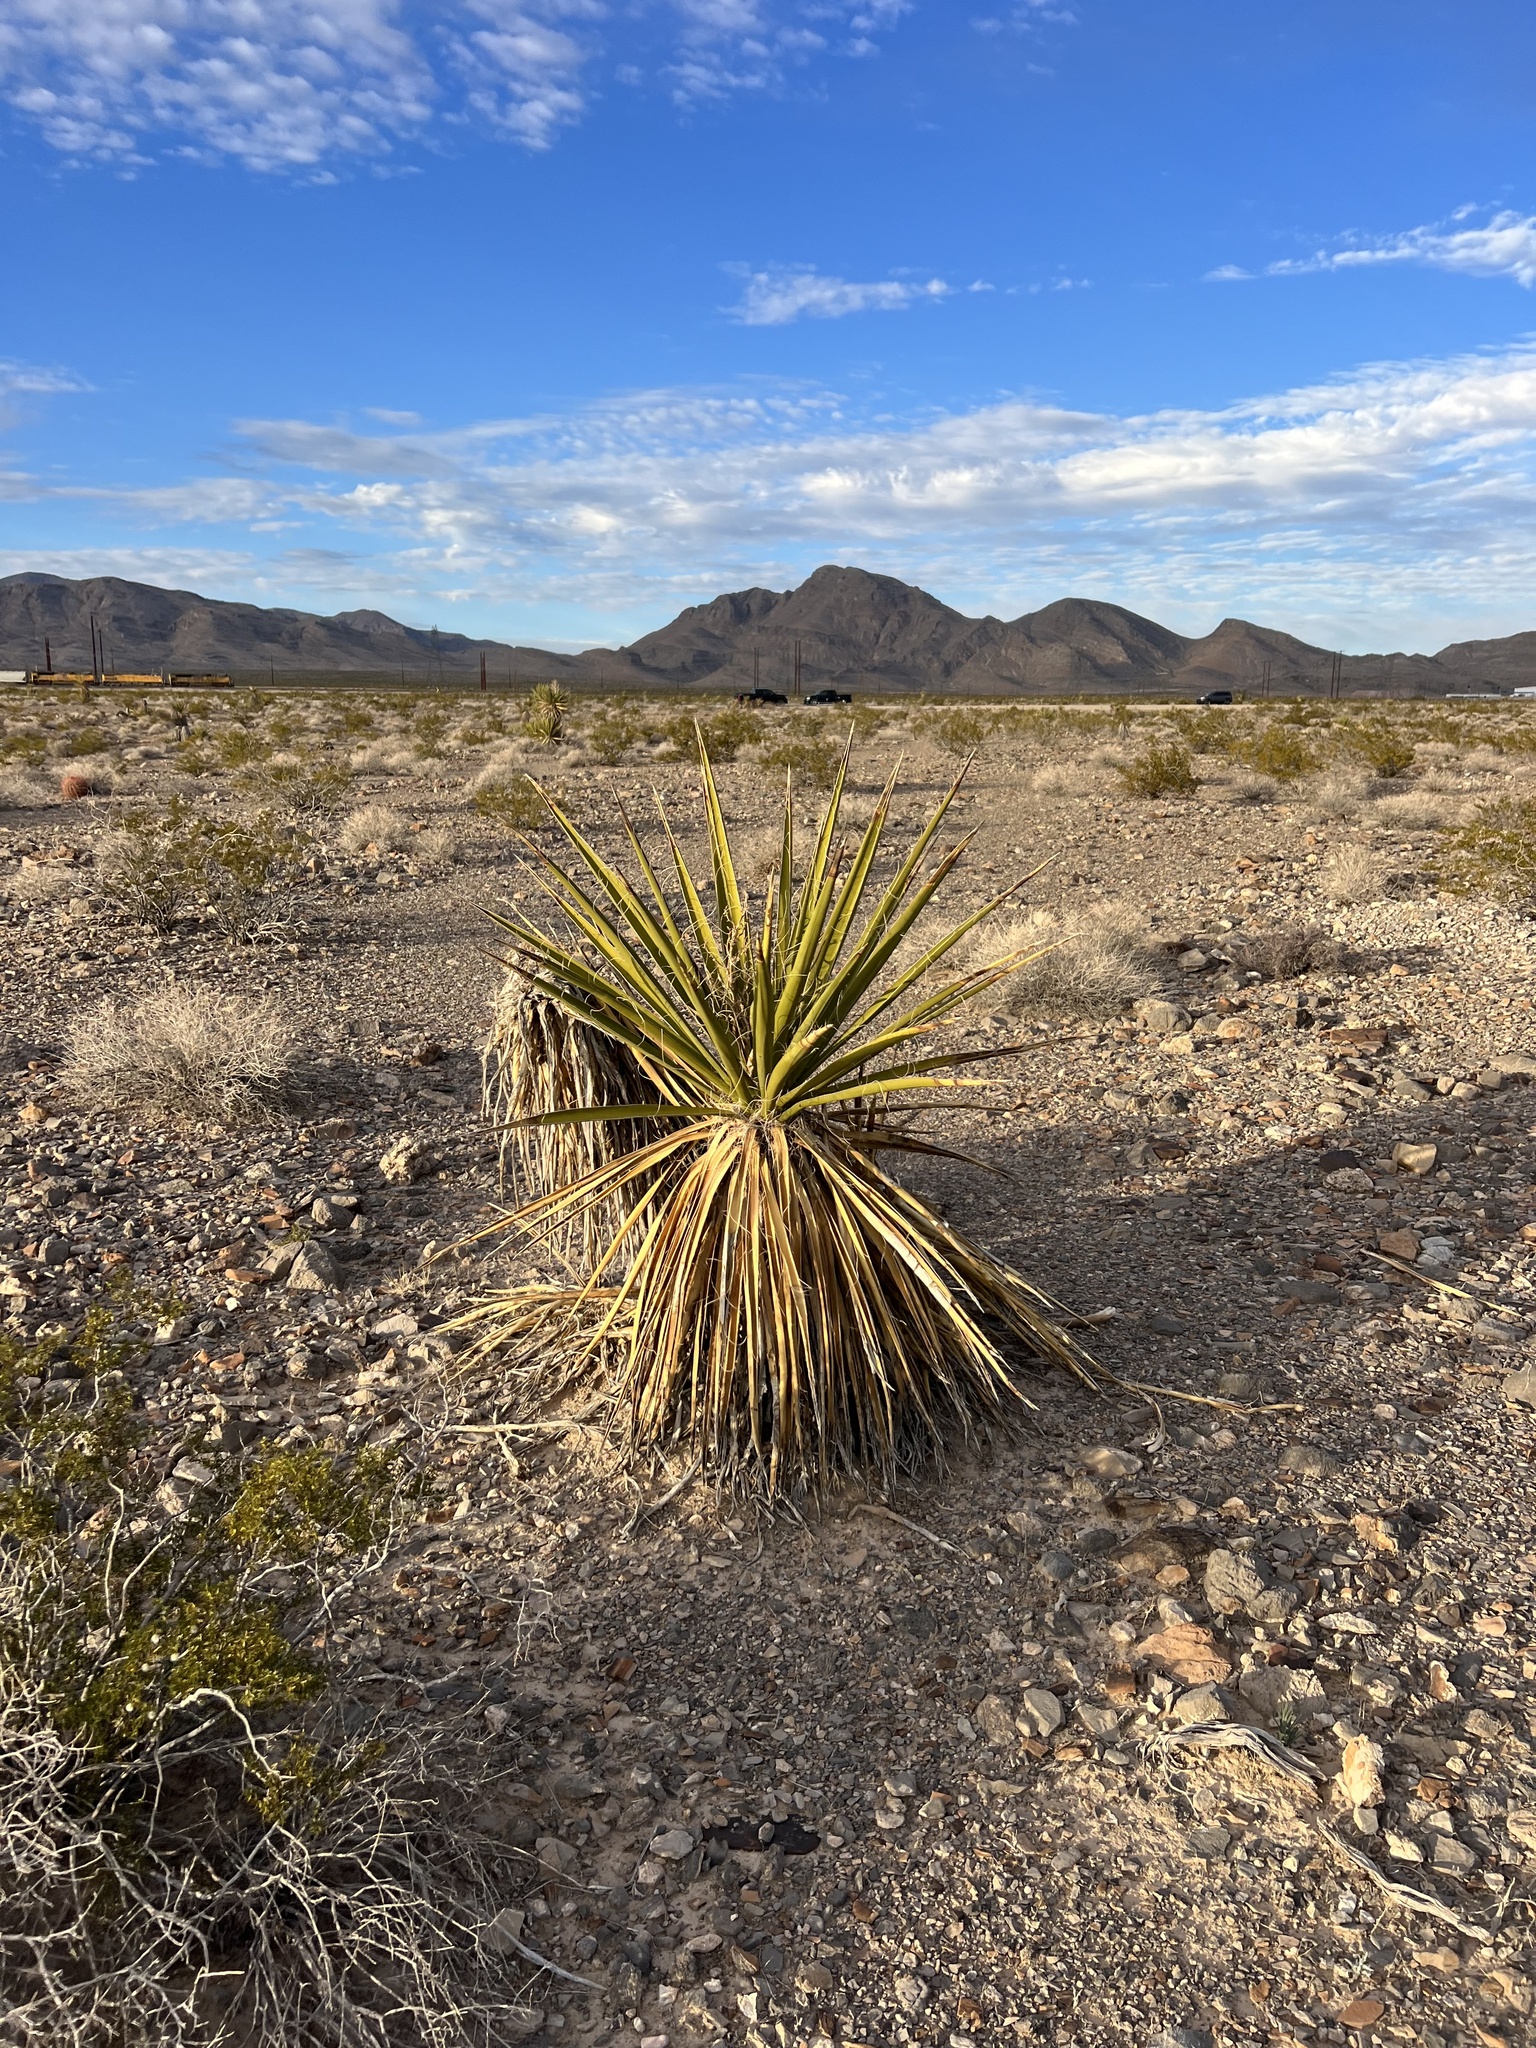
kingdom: Plantae
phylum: Tracheophyta
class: Liliopsida
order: Asparagales
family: Asparagaceae
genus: Yucca
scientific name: Yucca schidigera
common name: Mojave yucca
